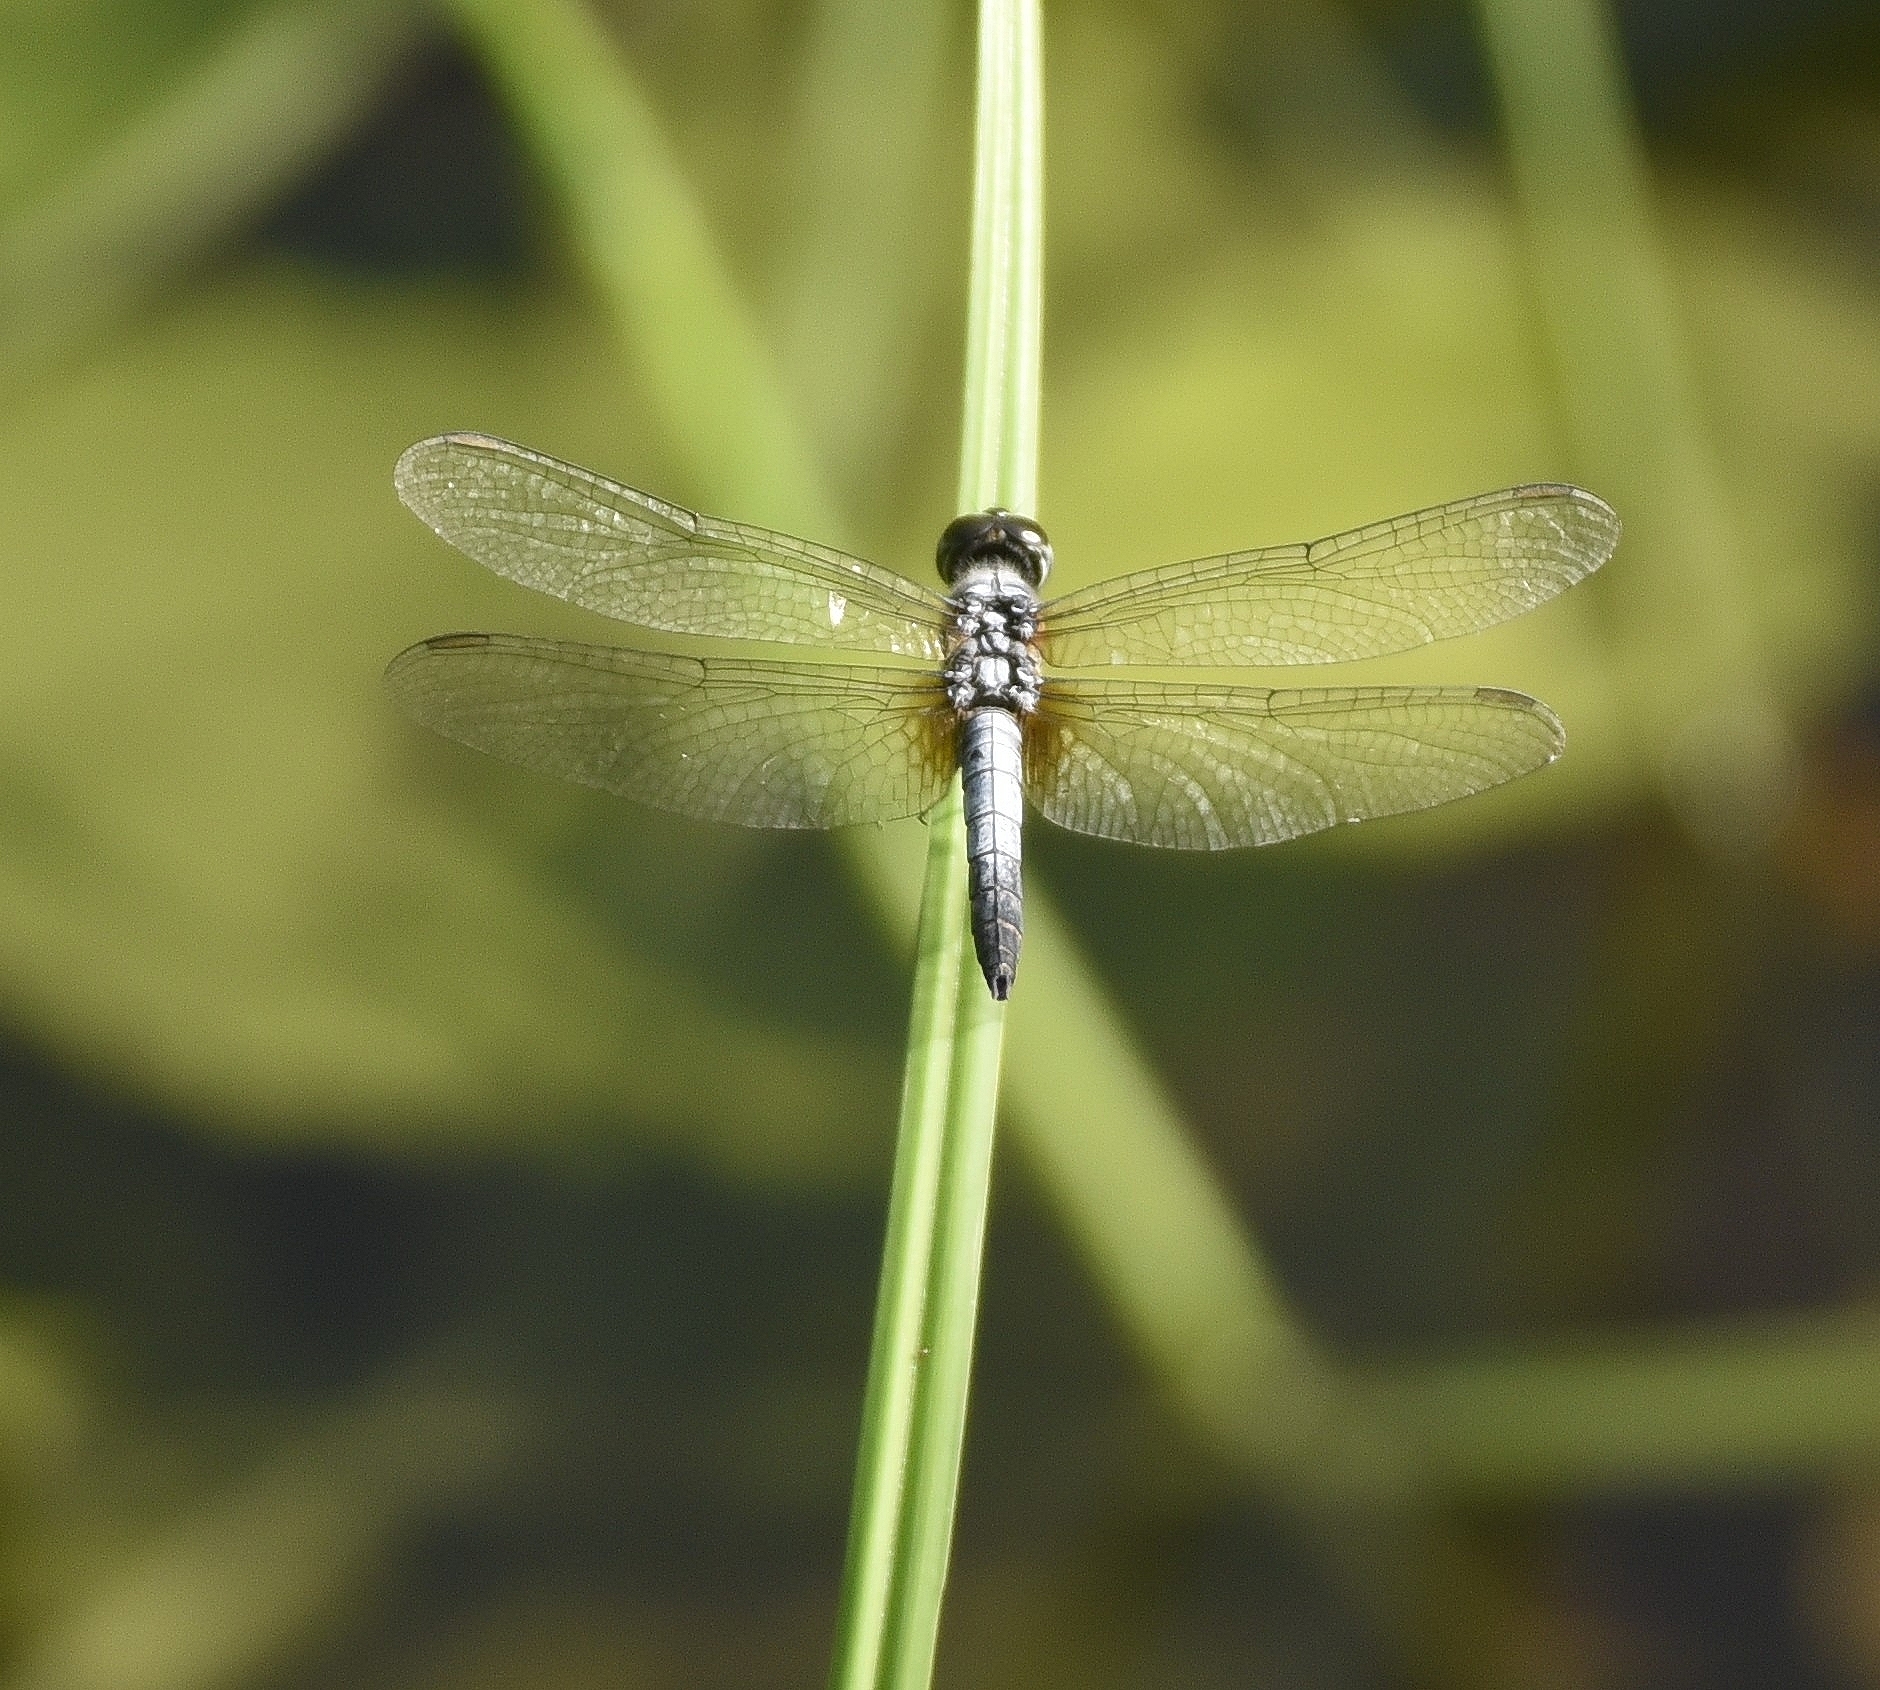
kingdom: Animalia
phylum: Arthropoda
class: Insecta
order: Odonata
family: Libellulidae
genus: Brachydiplax
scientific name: Brachydiplax chalybea
